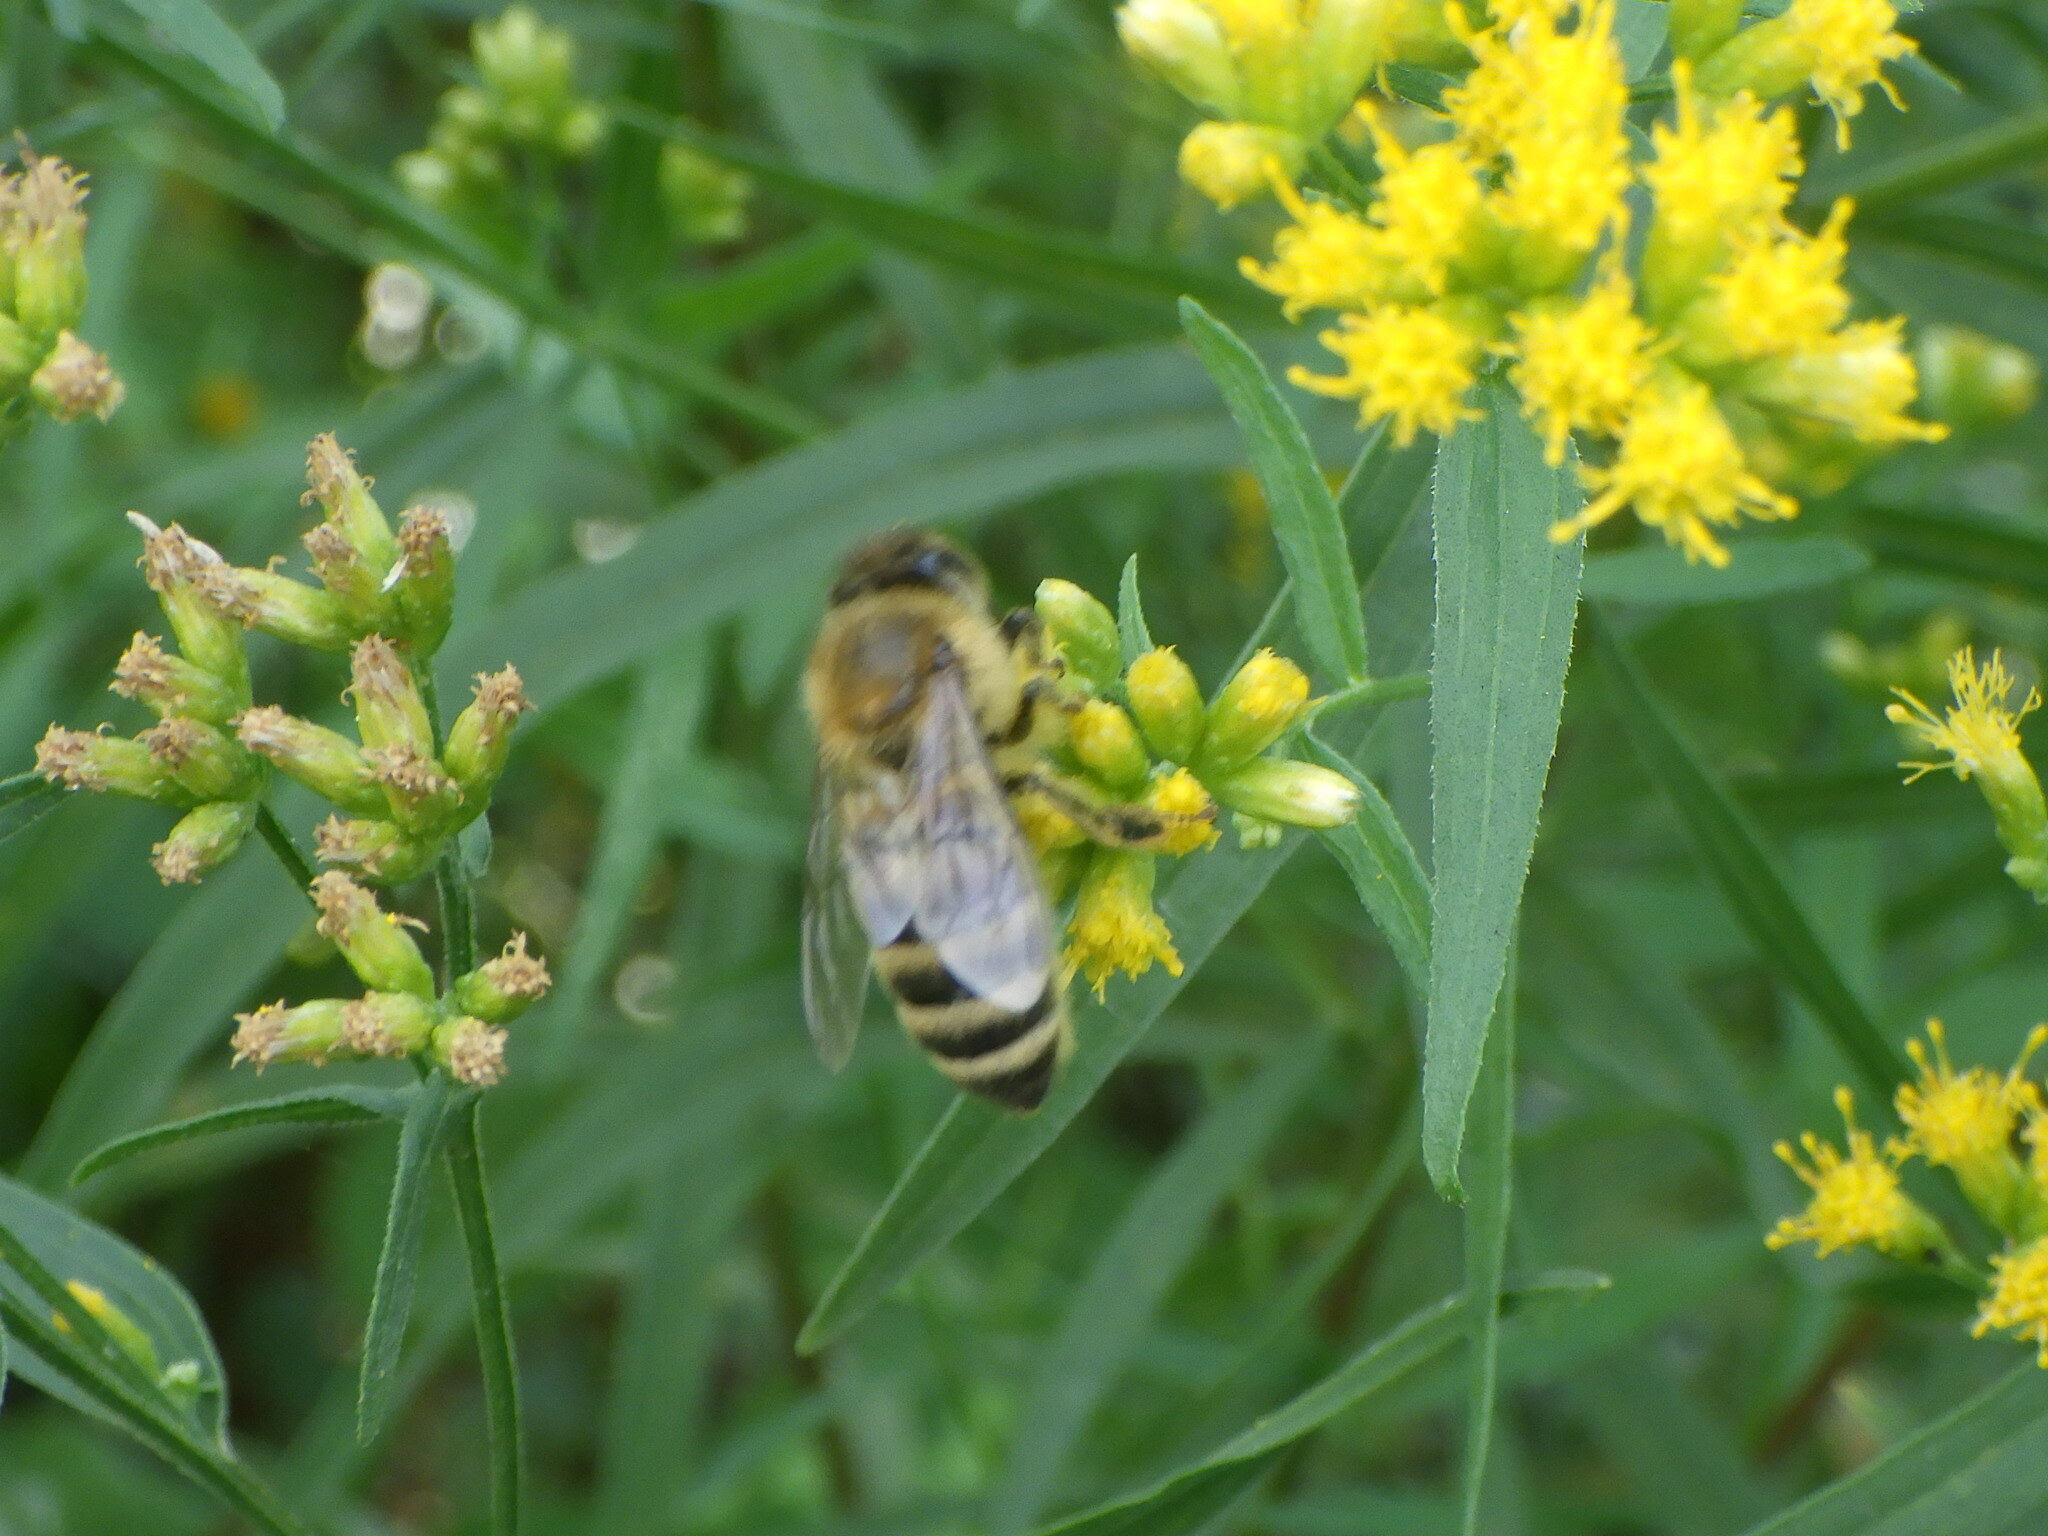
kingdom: Animalia
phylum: Arthropoda
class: Insecta
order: Hymenoptera
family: Apidae
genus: Apis
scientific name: Apis mellifera
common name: Honey bee
